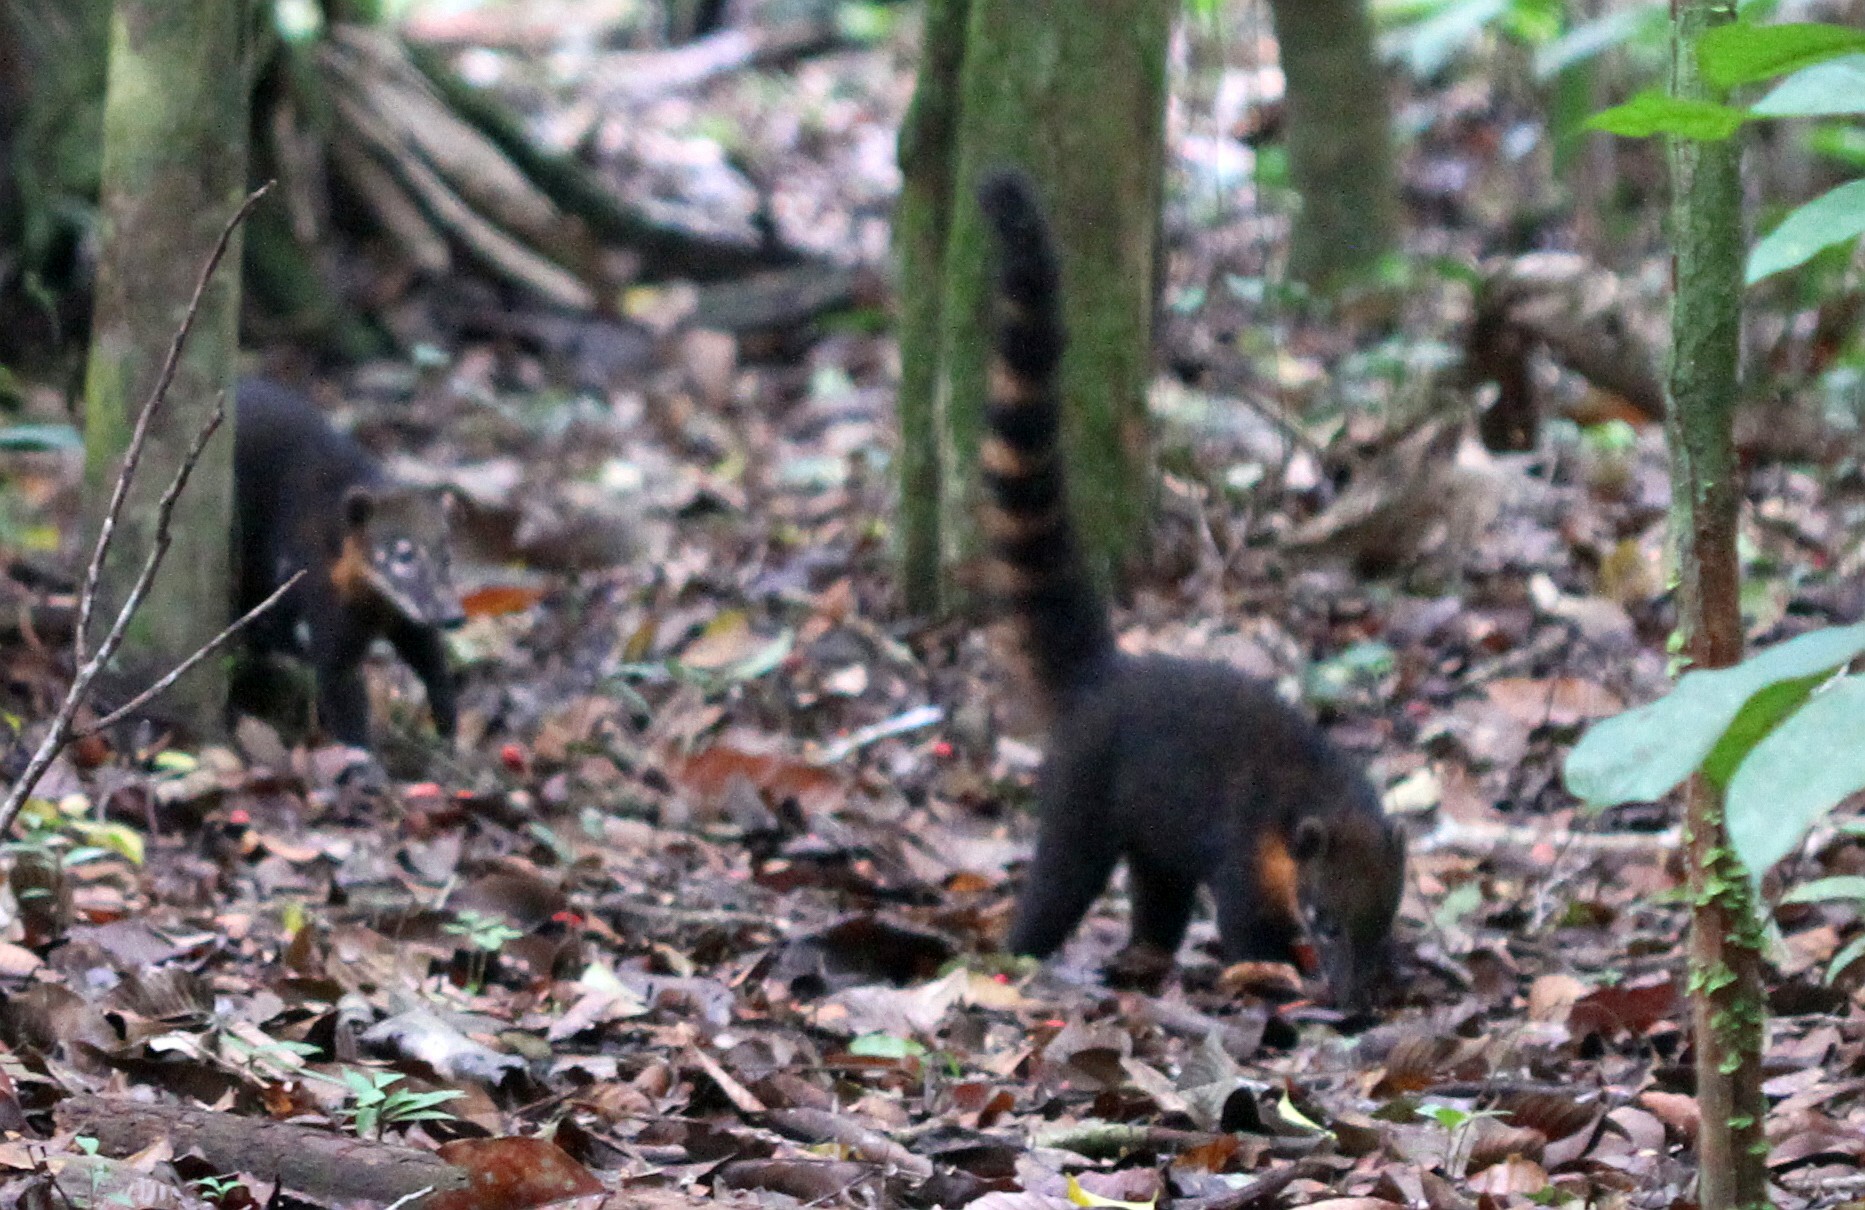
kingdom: Animalia
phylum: Chordata
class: Mammalia
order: Carnivora
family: Procyonidae
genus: Nasua
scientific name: Nasua nasua
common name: South american coati
